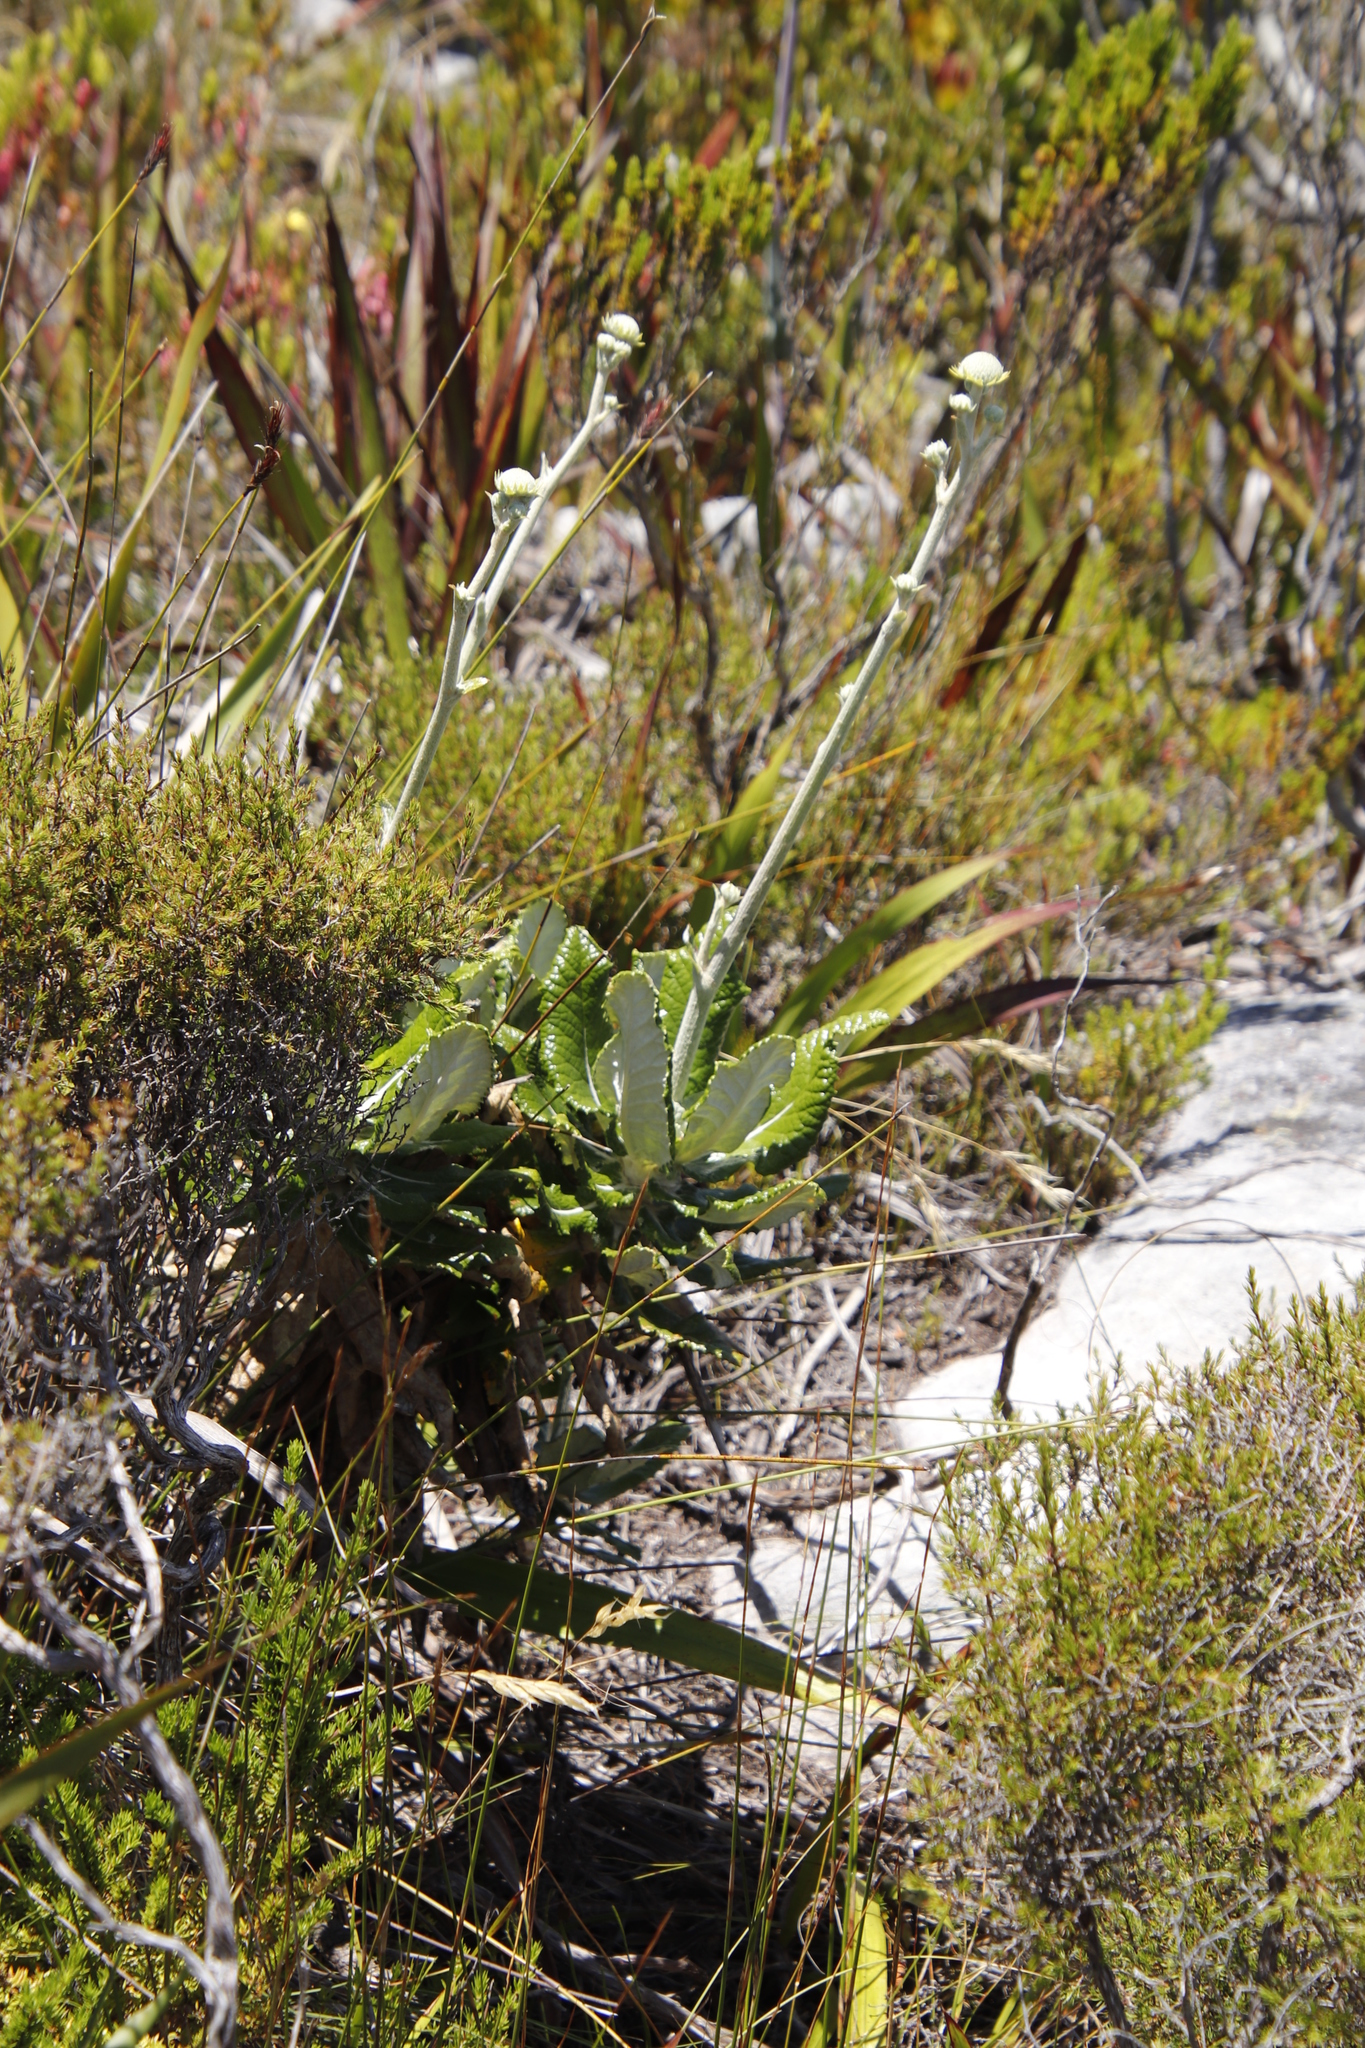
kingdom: Plantae
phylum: Tracheophyta
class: Magnoliopsida
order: Apiales
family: Apiaceae
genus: Hermas
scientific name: Hermas villosa
